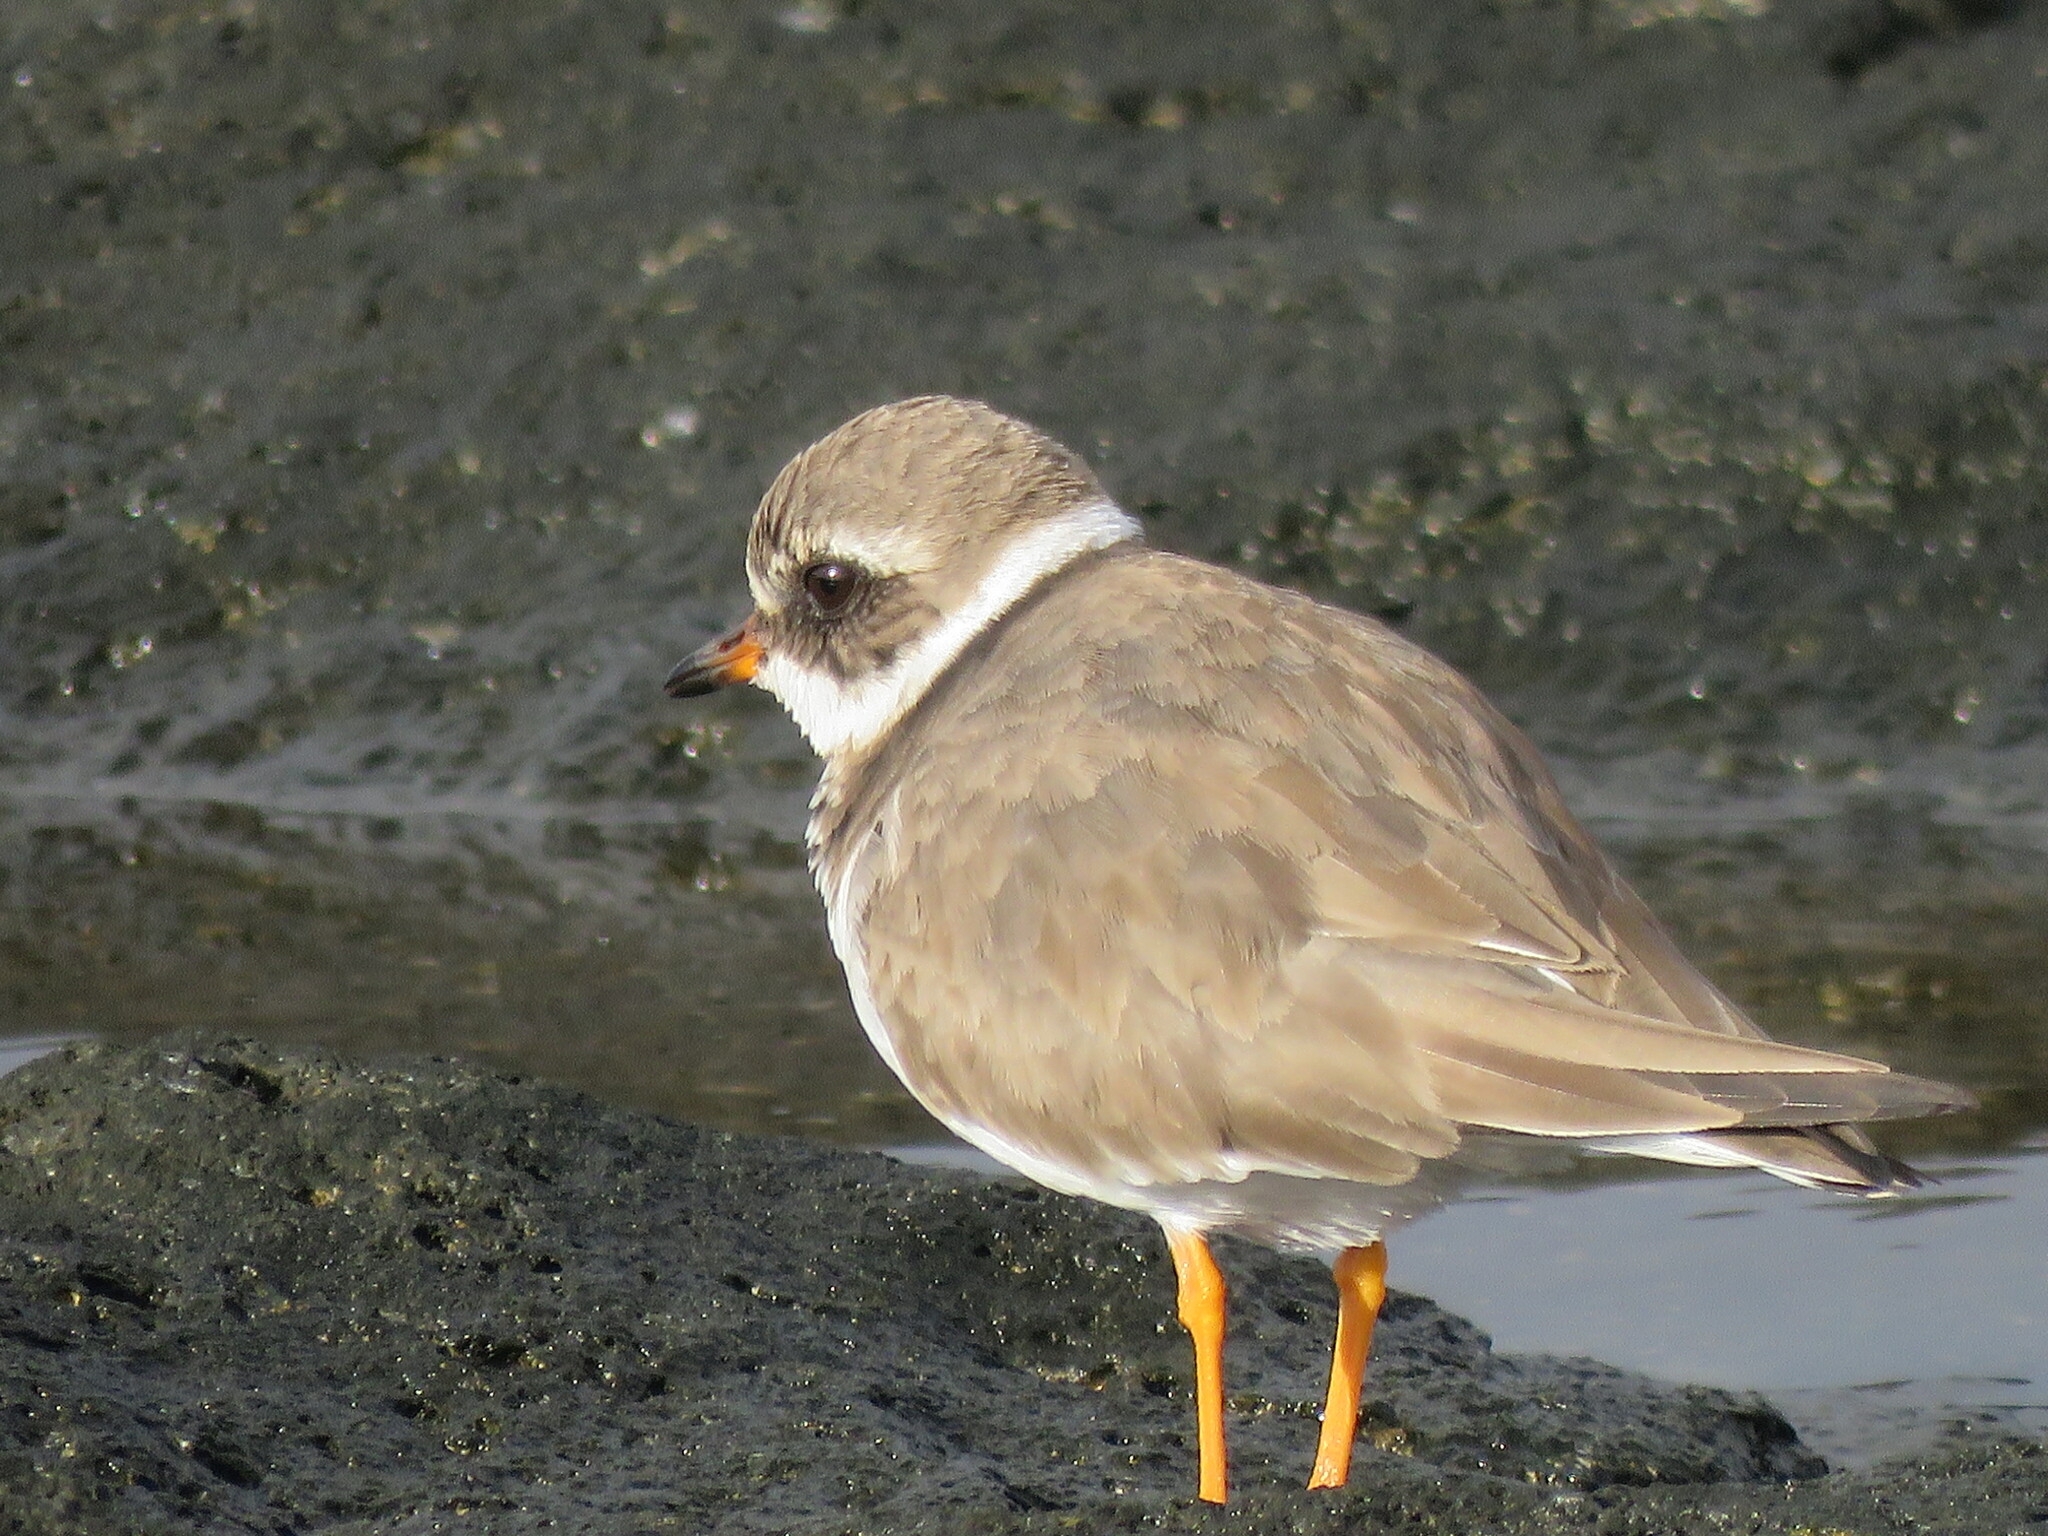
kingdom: Animalia
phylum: Chordata
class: Aves
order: Charadriiformes
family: Charadriidae
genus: Charadrius
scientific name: Charadrius hiaticula
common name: Common ringed plover
